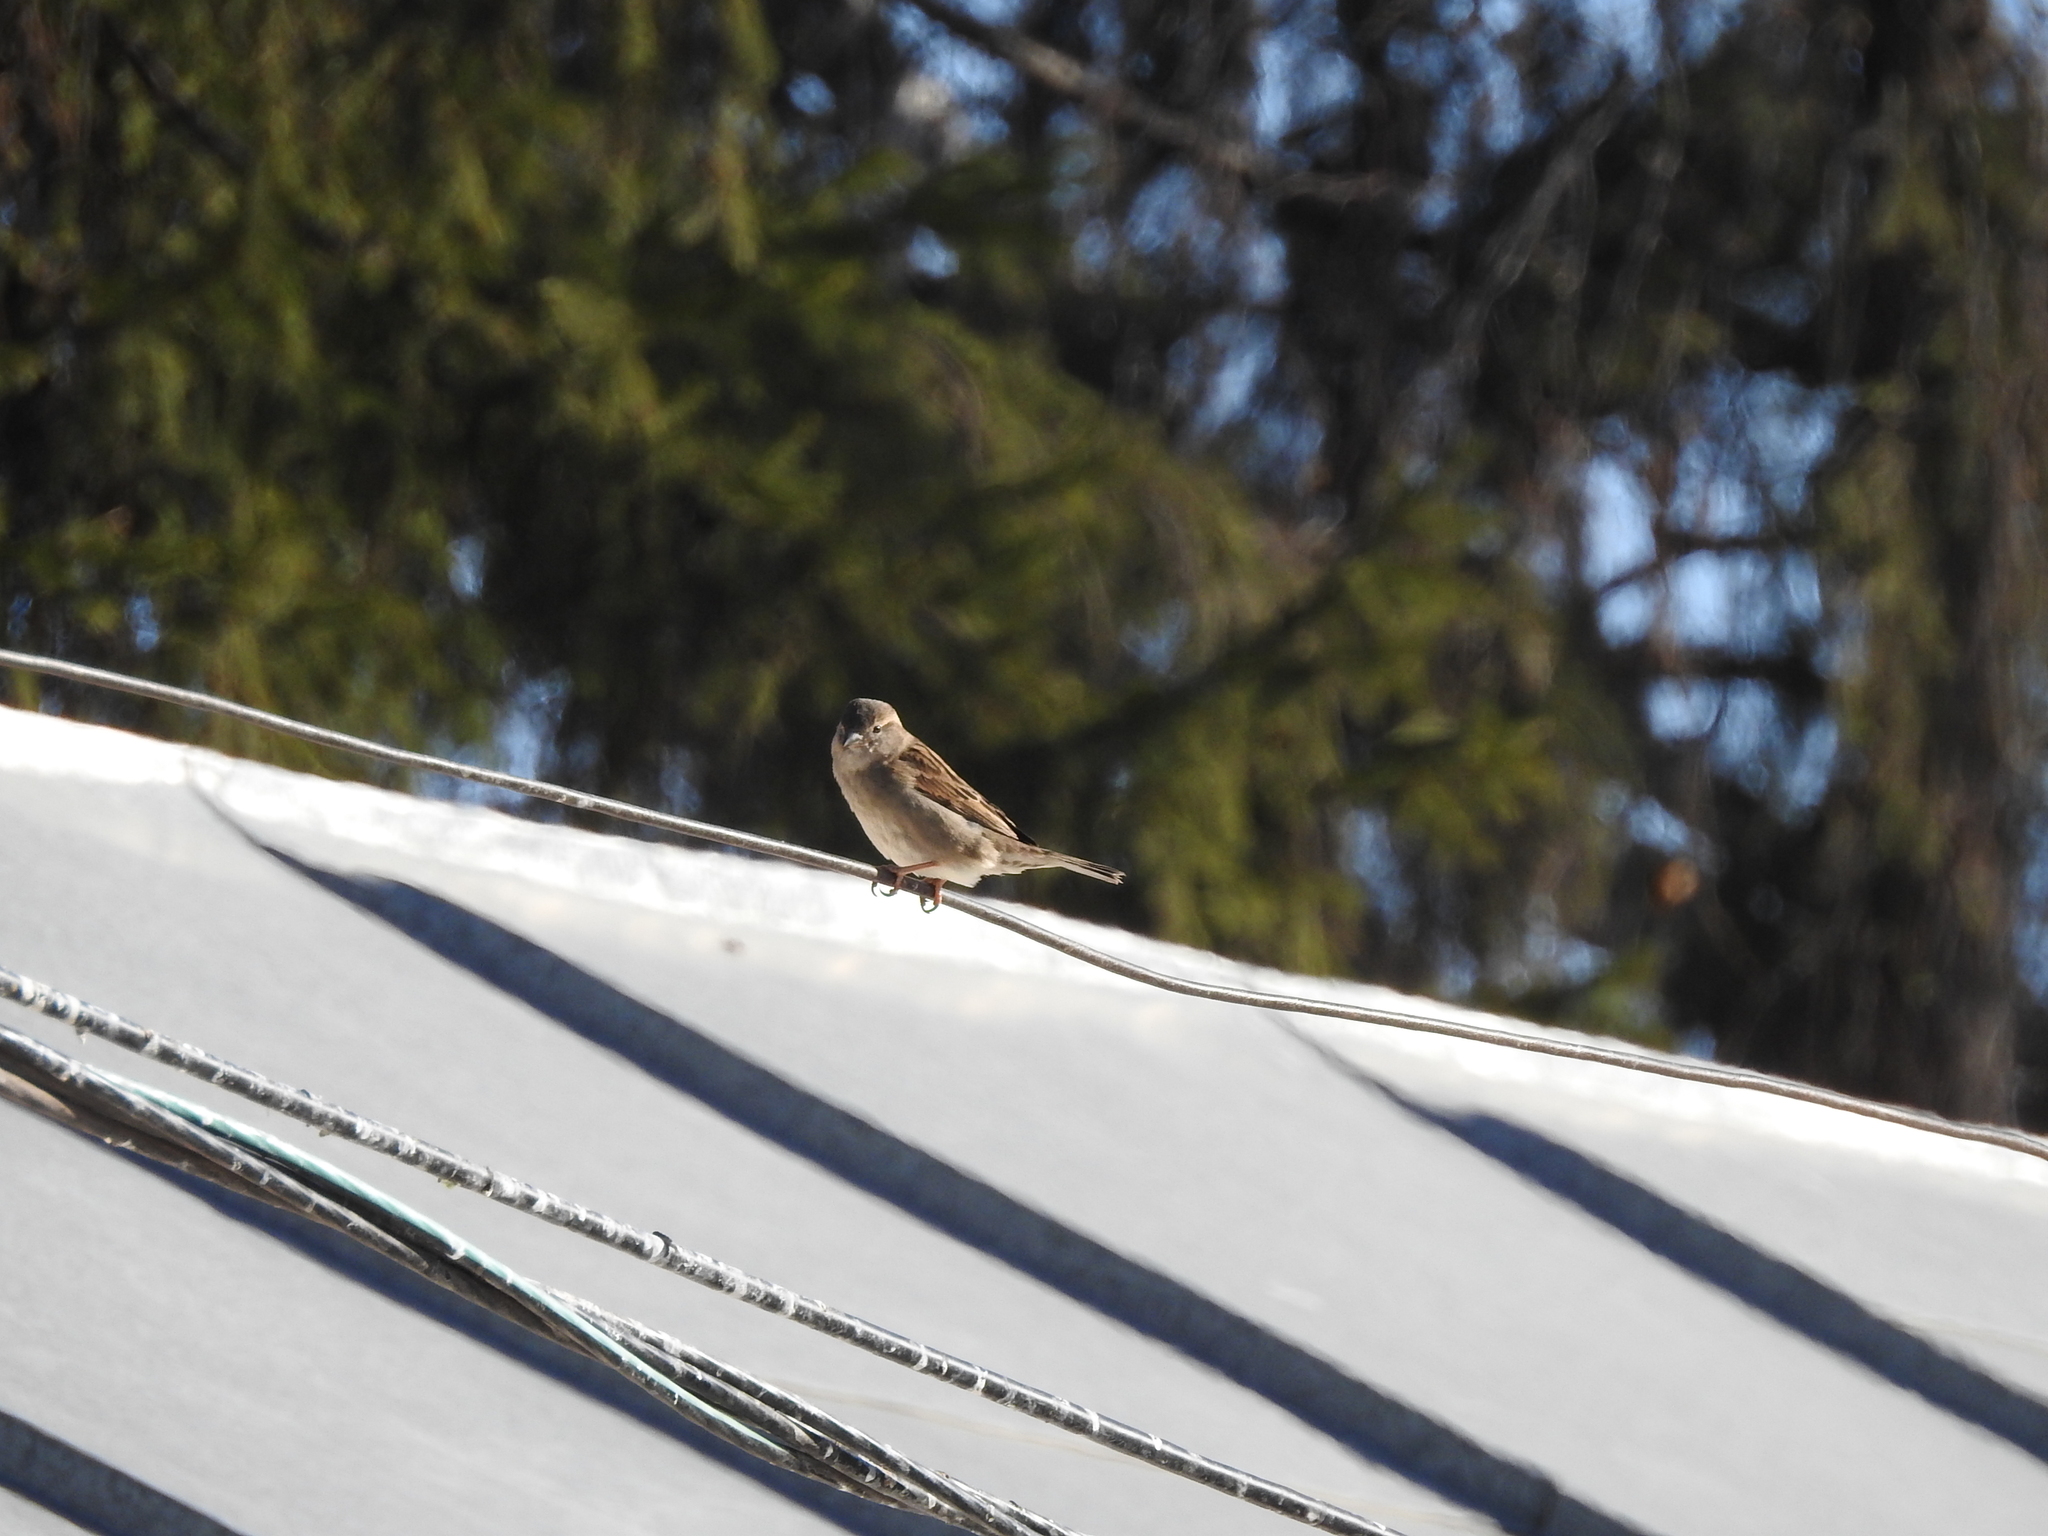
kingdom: Animalia
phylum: Chordata
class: Aves
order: Passeriformes
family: Passeridae
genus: Passer
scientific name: Passer domesticus
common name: House sparrow
